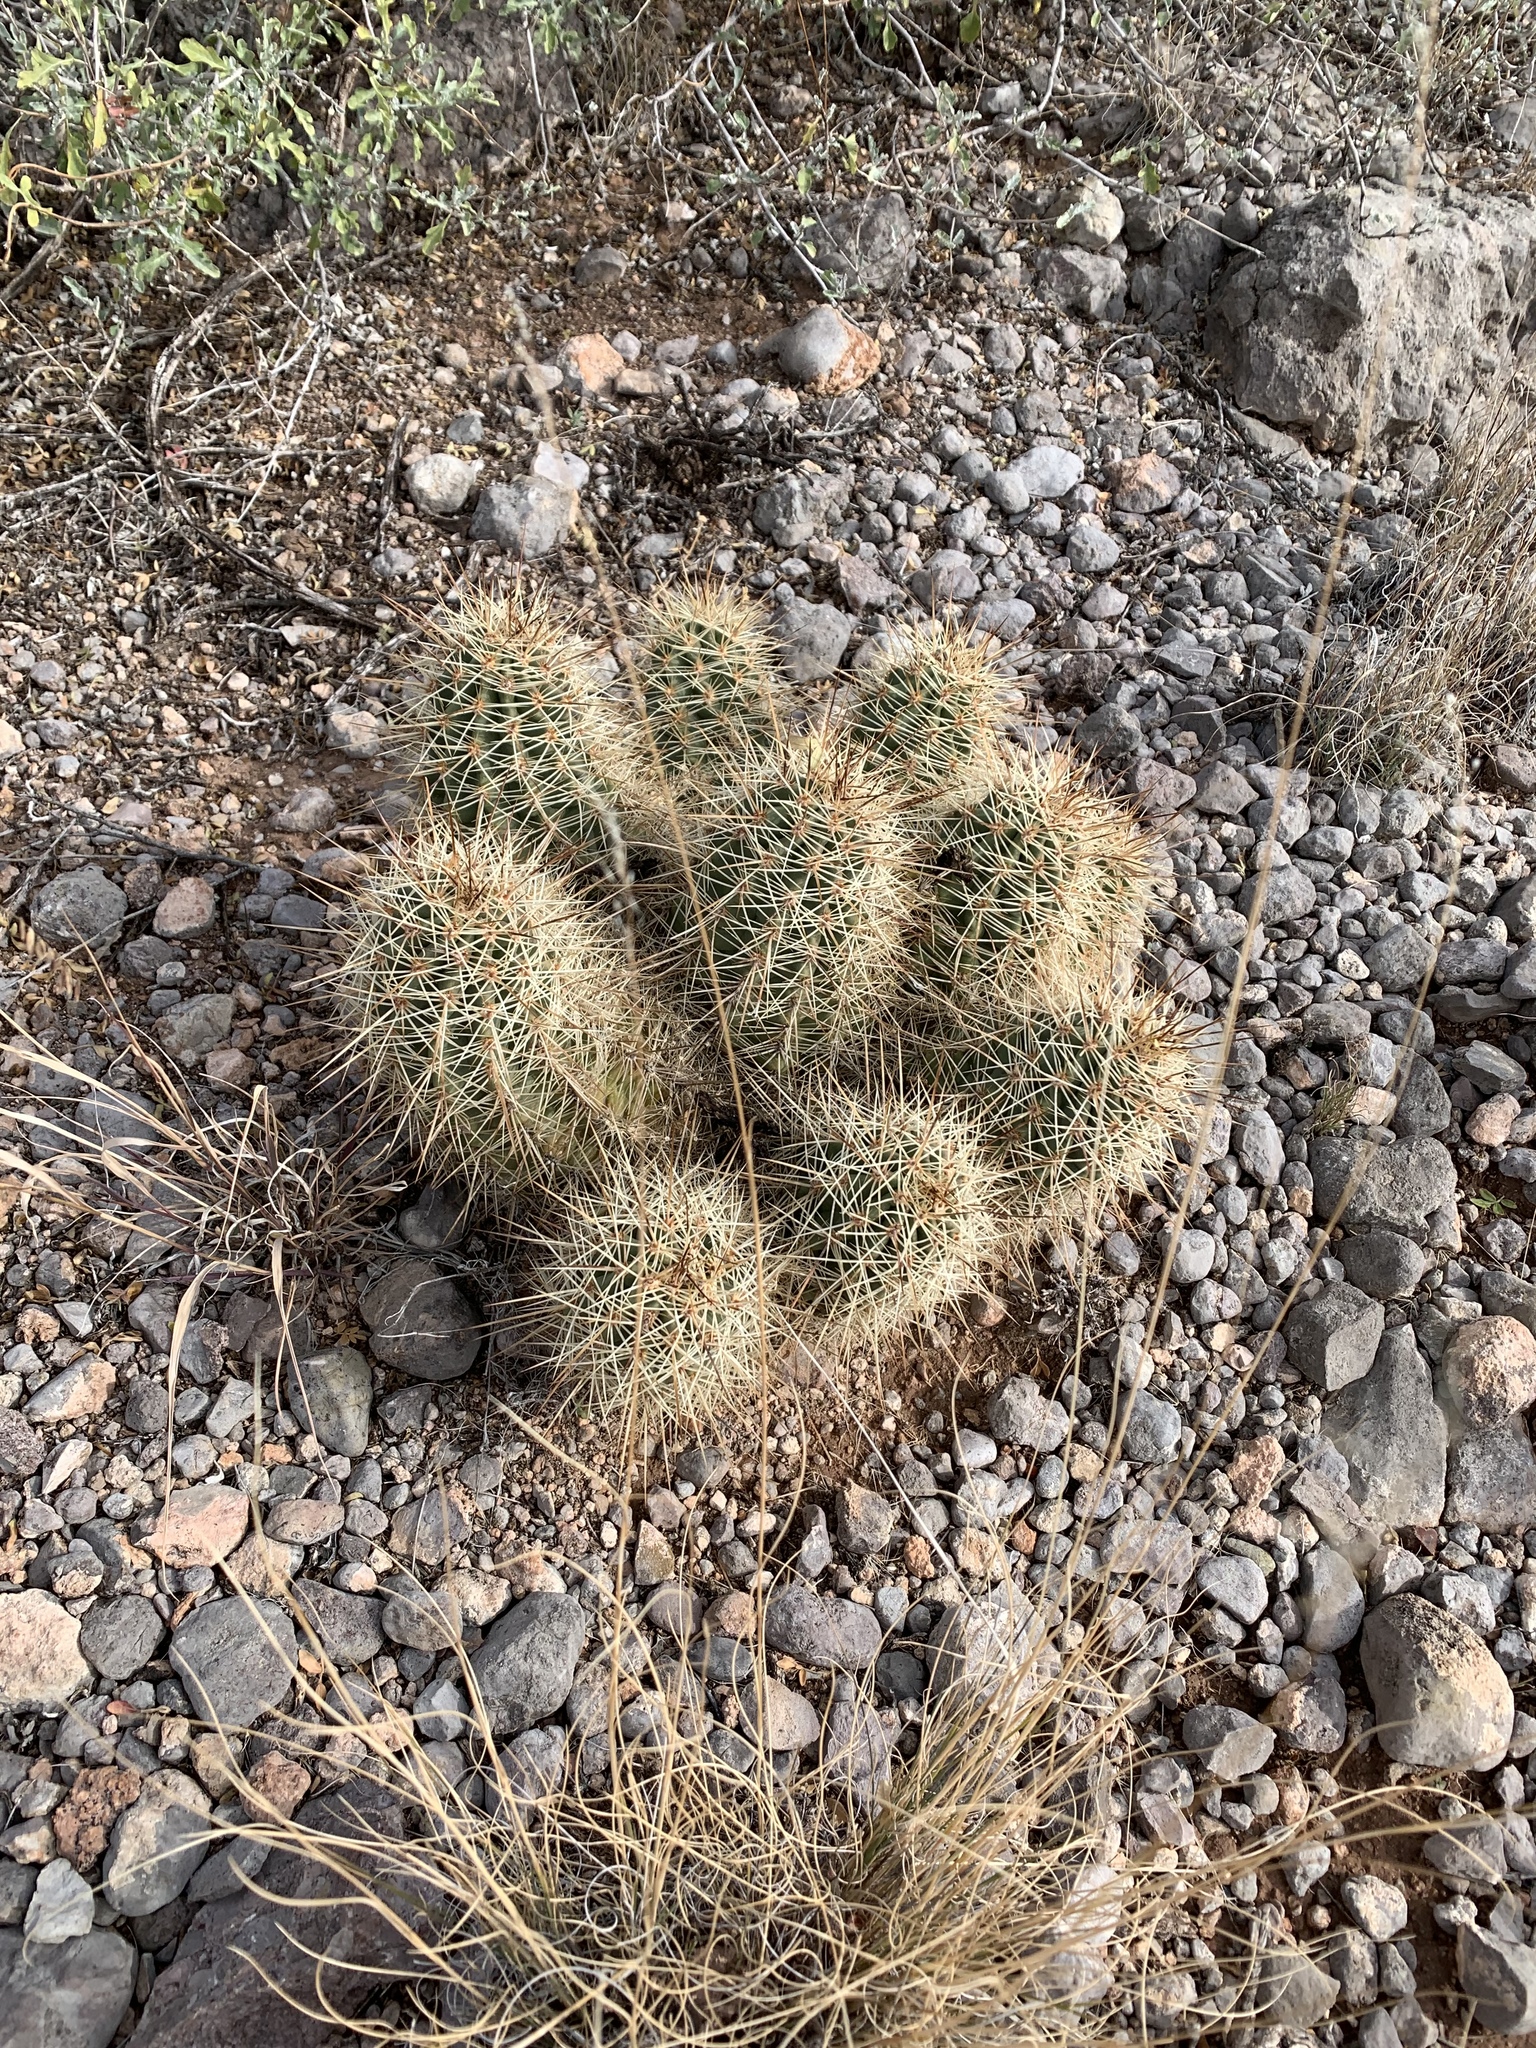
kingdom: Plantae
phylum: Tracheophyta
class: Magnoliopsida
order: Caryophyllales
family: Cactaceae
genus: Echinocereus
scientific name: Echinocereus coccineus
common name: Scarlet hedgehog cactus
